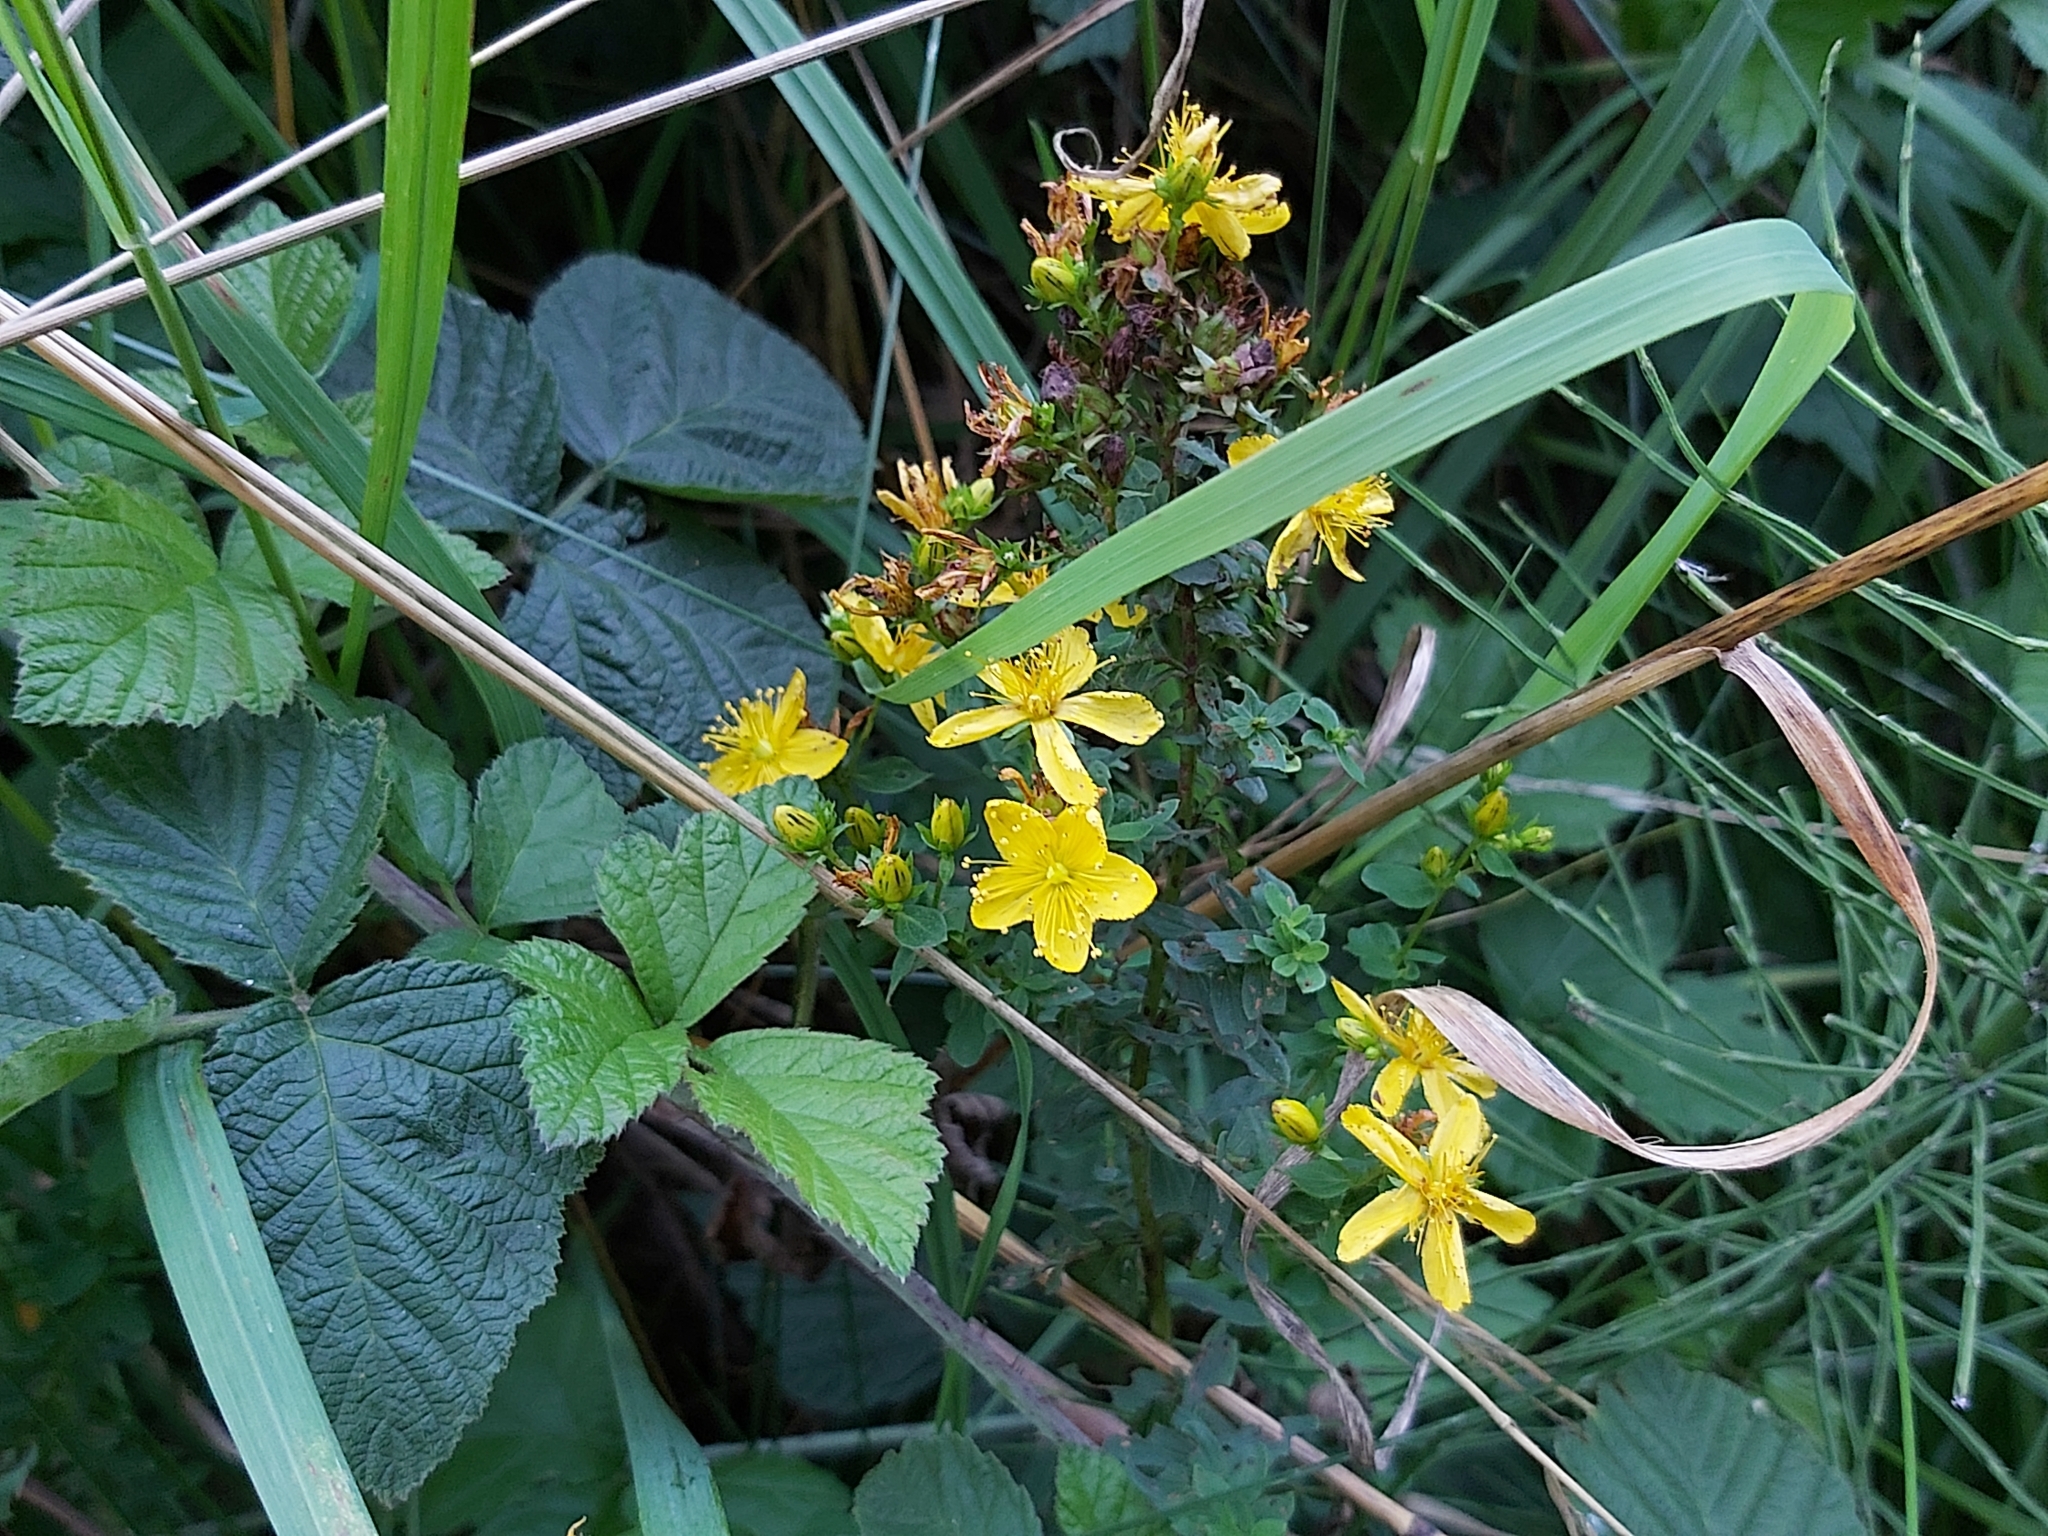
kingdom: Plantae
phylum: Tracheophyta
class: Magnoliopsida
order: Malpighiales
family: Hypericaceae
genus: Hypericum
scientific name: Hypericum perforatum
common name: Common st. johnswort
